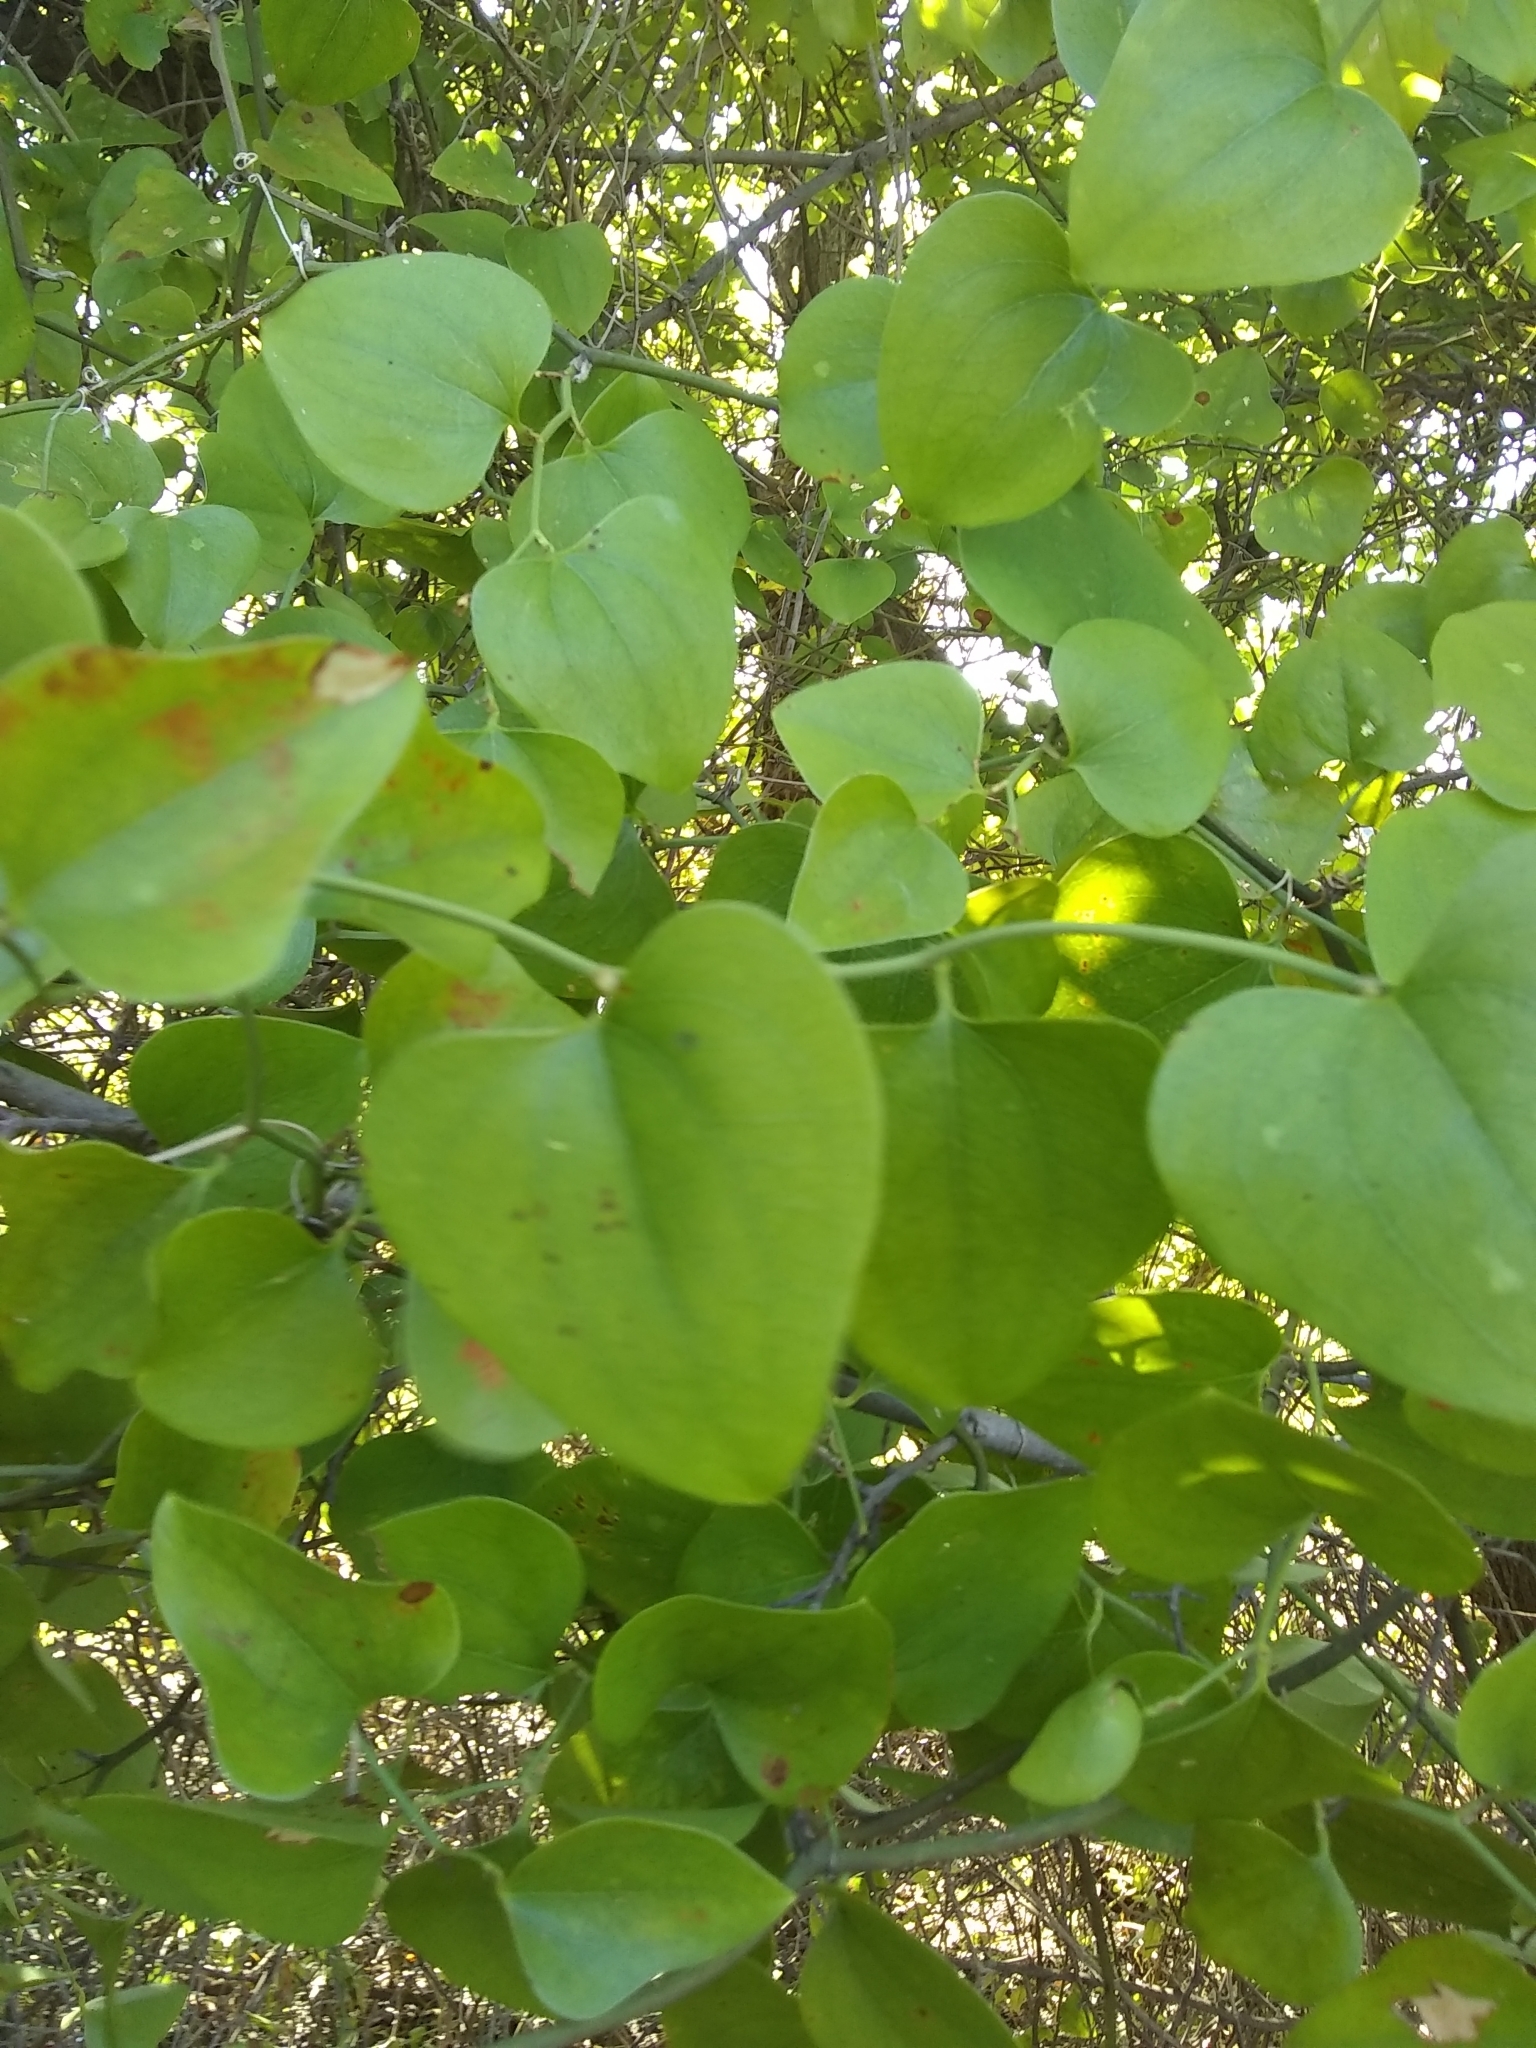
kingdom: Plantae
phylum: Tracheophyta
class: Magnoliopsida
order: Ranunculales
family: Menispermaceae
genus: Cocculus
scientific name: Cocculus carolinus
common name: Carolina moonseed
